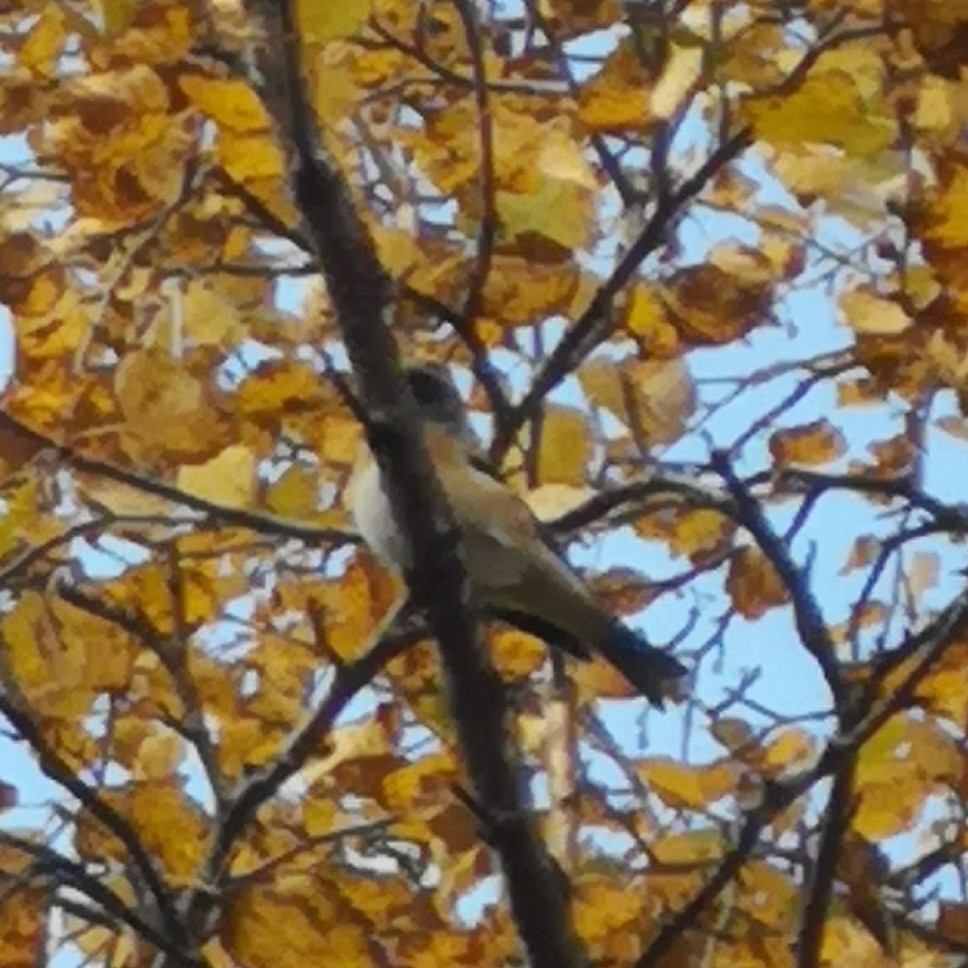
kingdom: Animalia
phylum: Chordata
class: Aves
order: Passeriformes
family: Fringillidae
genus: Fringilla
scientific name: Fringilla montifringilla
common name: Brambling
